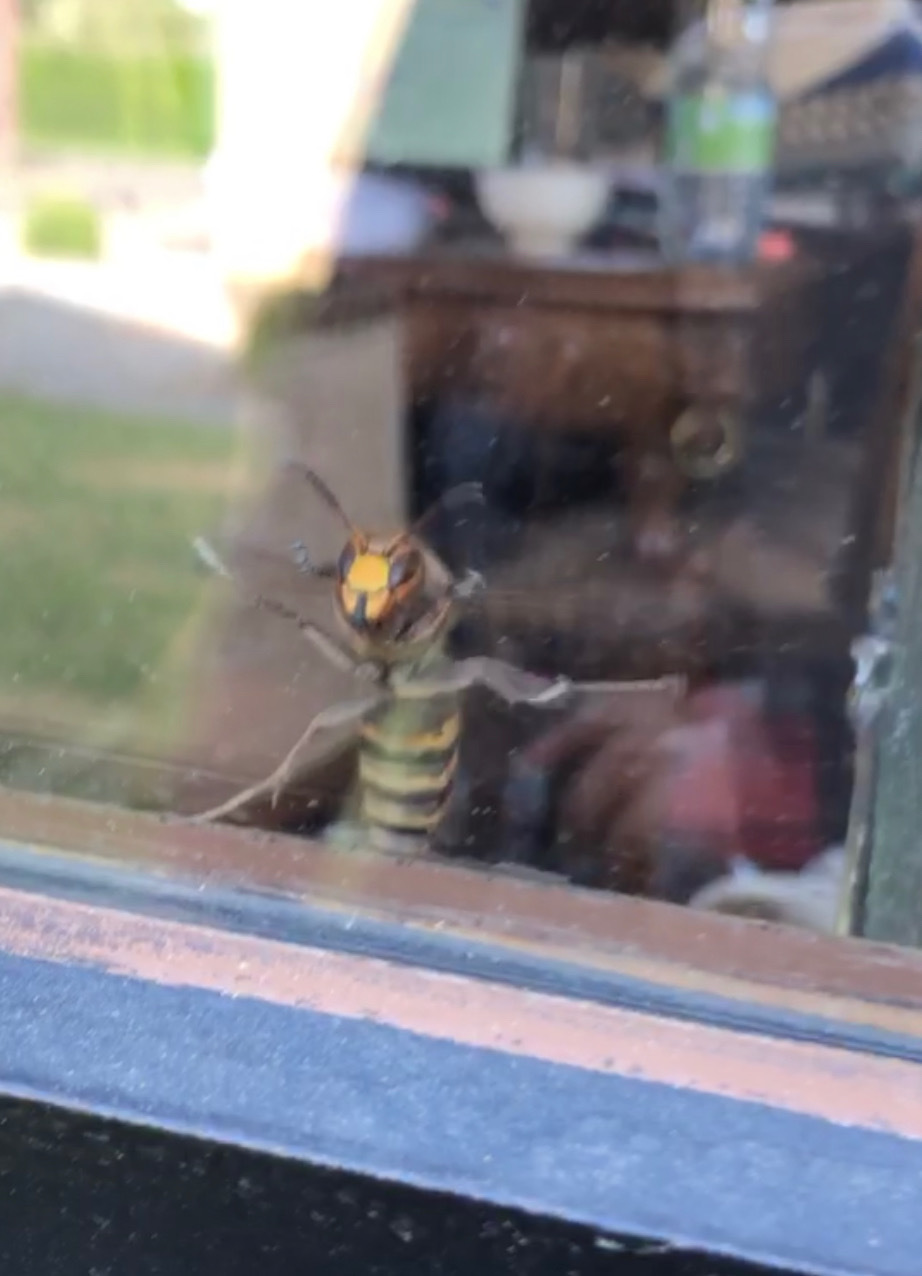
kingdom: Animalia
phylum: Arthropoda
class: Insecta
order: Hymenoptera
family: Vespidae
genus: Vespa
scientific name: Vespa crabro
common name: Hornet
